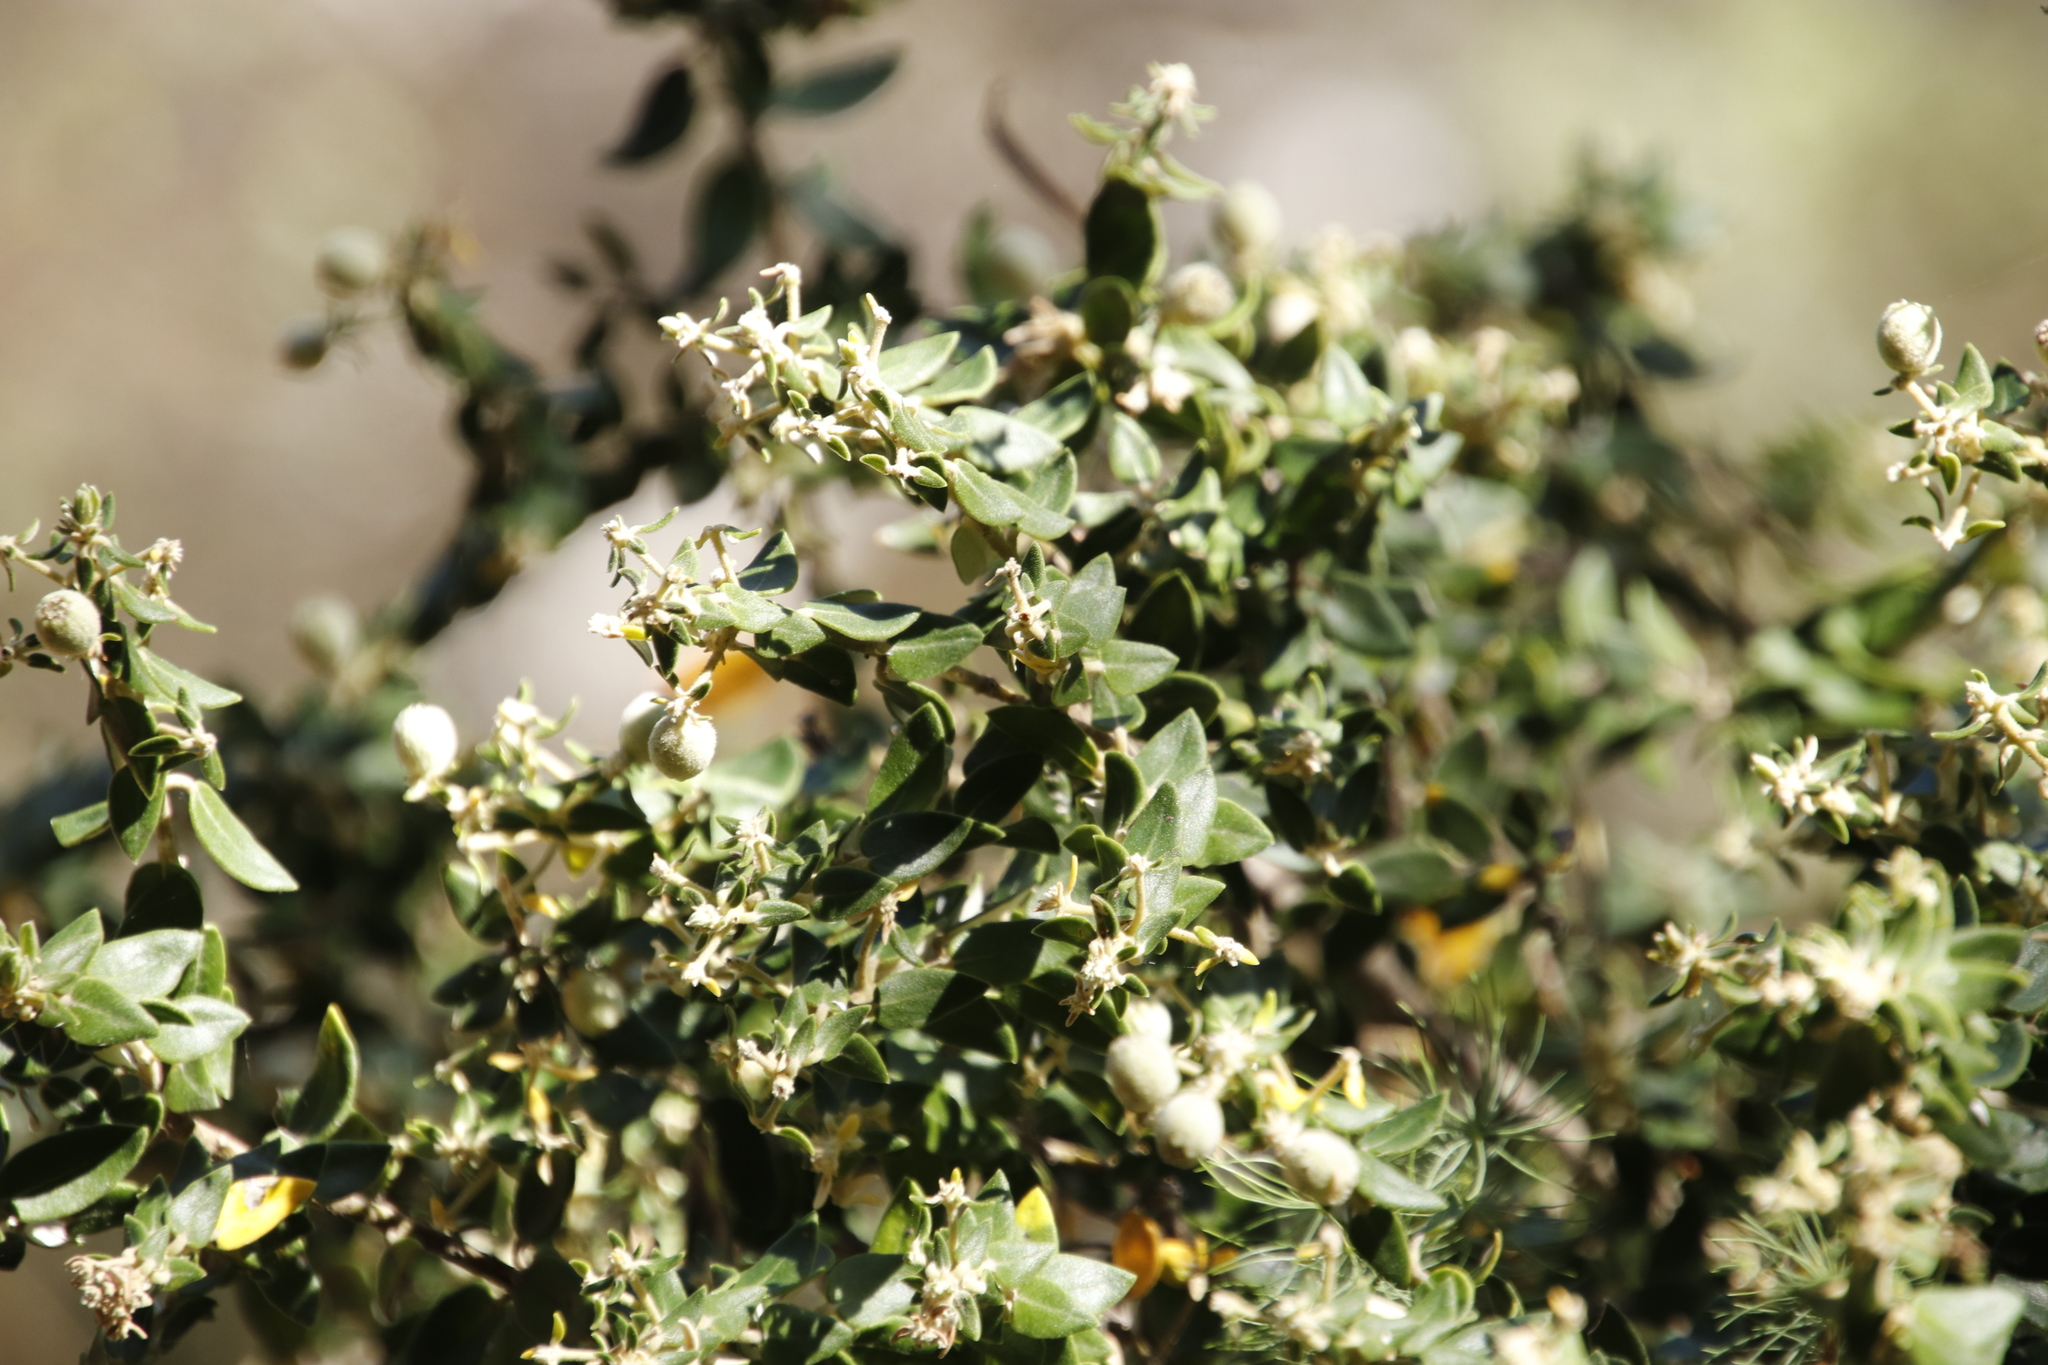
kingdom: Plantae
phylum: Tracheophyta
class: Magnoliopsida
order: Rosales
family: Rhamnaceae
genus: Phylica
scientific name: Phylica buxifolia
